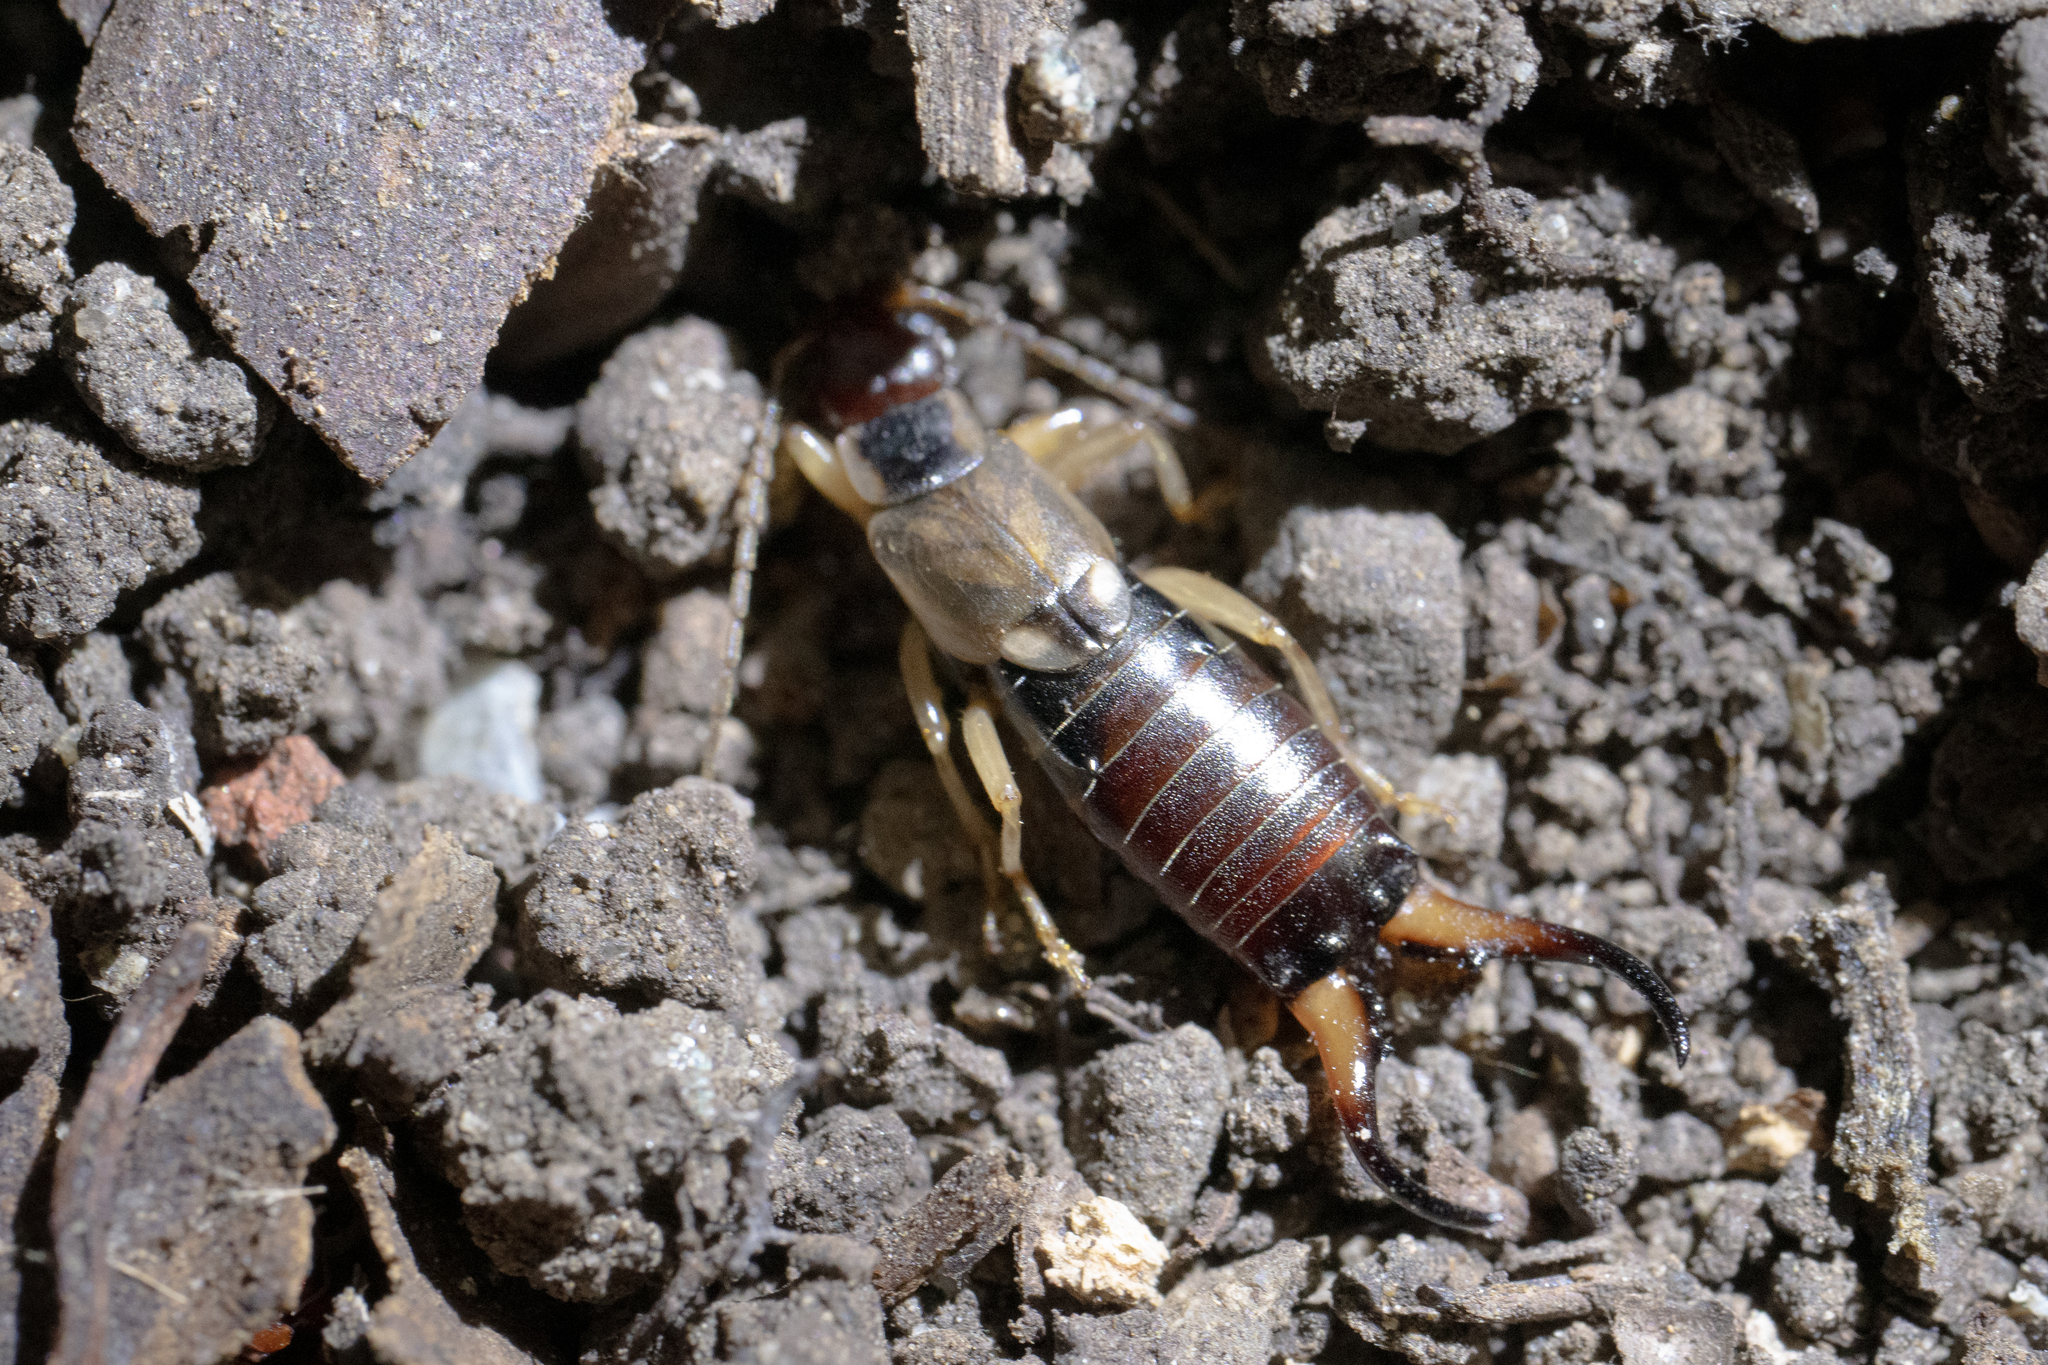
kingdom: Animalia
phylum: Arthropoda
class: Insecta
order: Dermaptera
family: Forficulidae
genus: Forficula
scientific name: Forficula dentata
